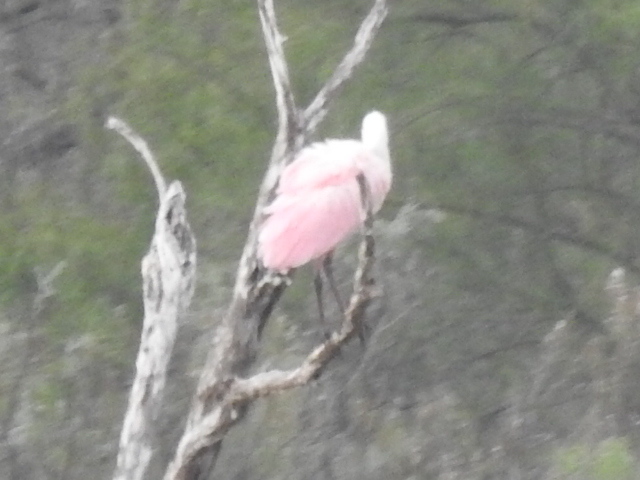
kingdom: Animalia
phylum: Chordata
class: Aves
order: Pelecaniformes
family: Threskiornithidae
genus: Platalea
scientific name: Platalea ajaja
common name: Roseate spoonbill
